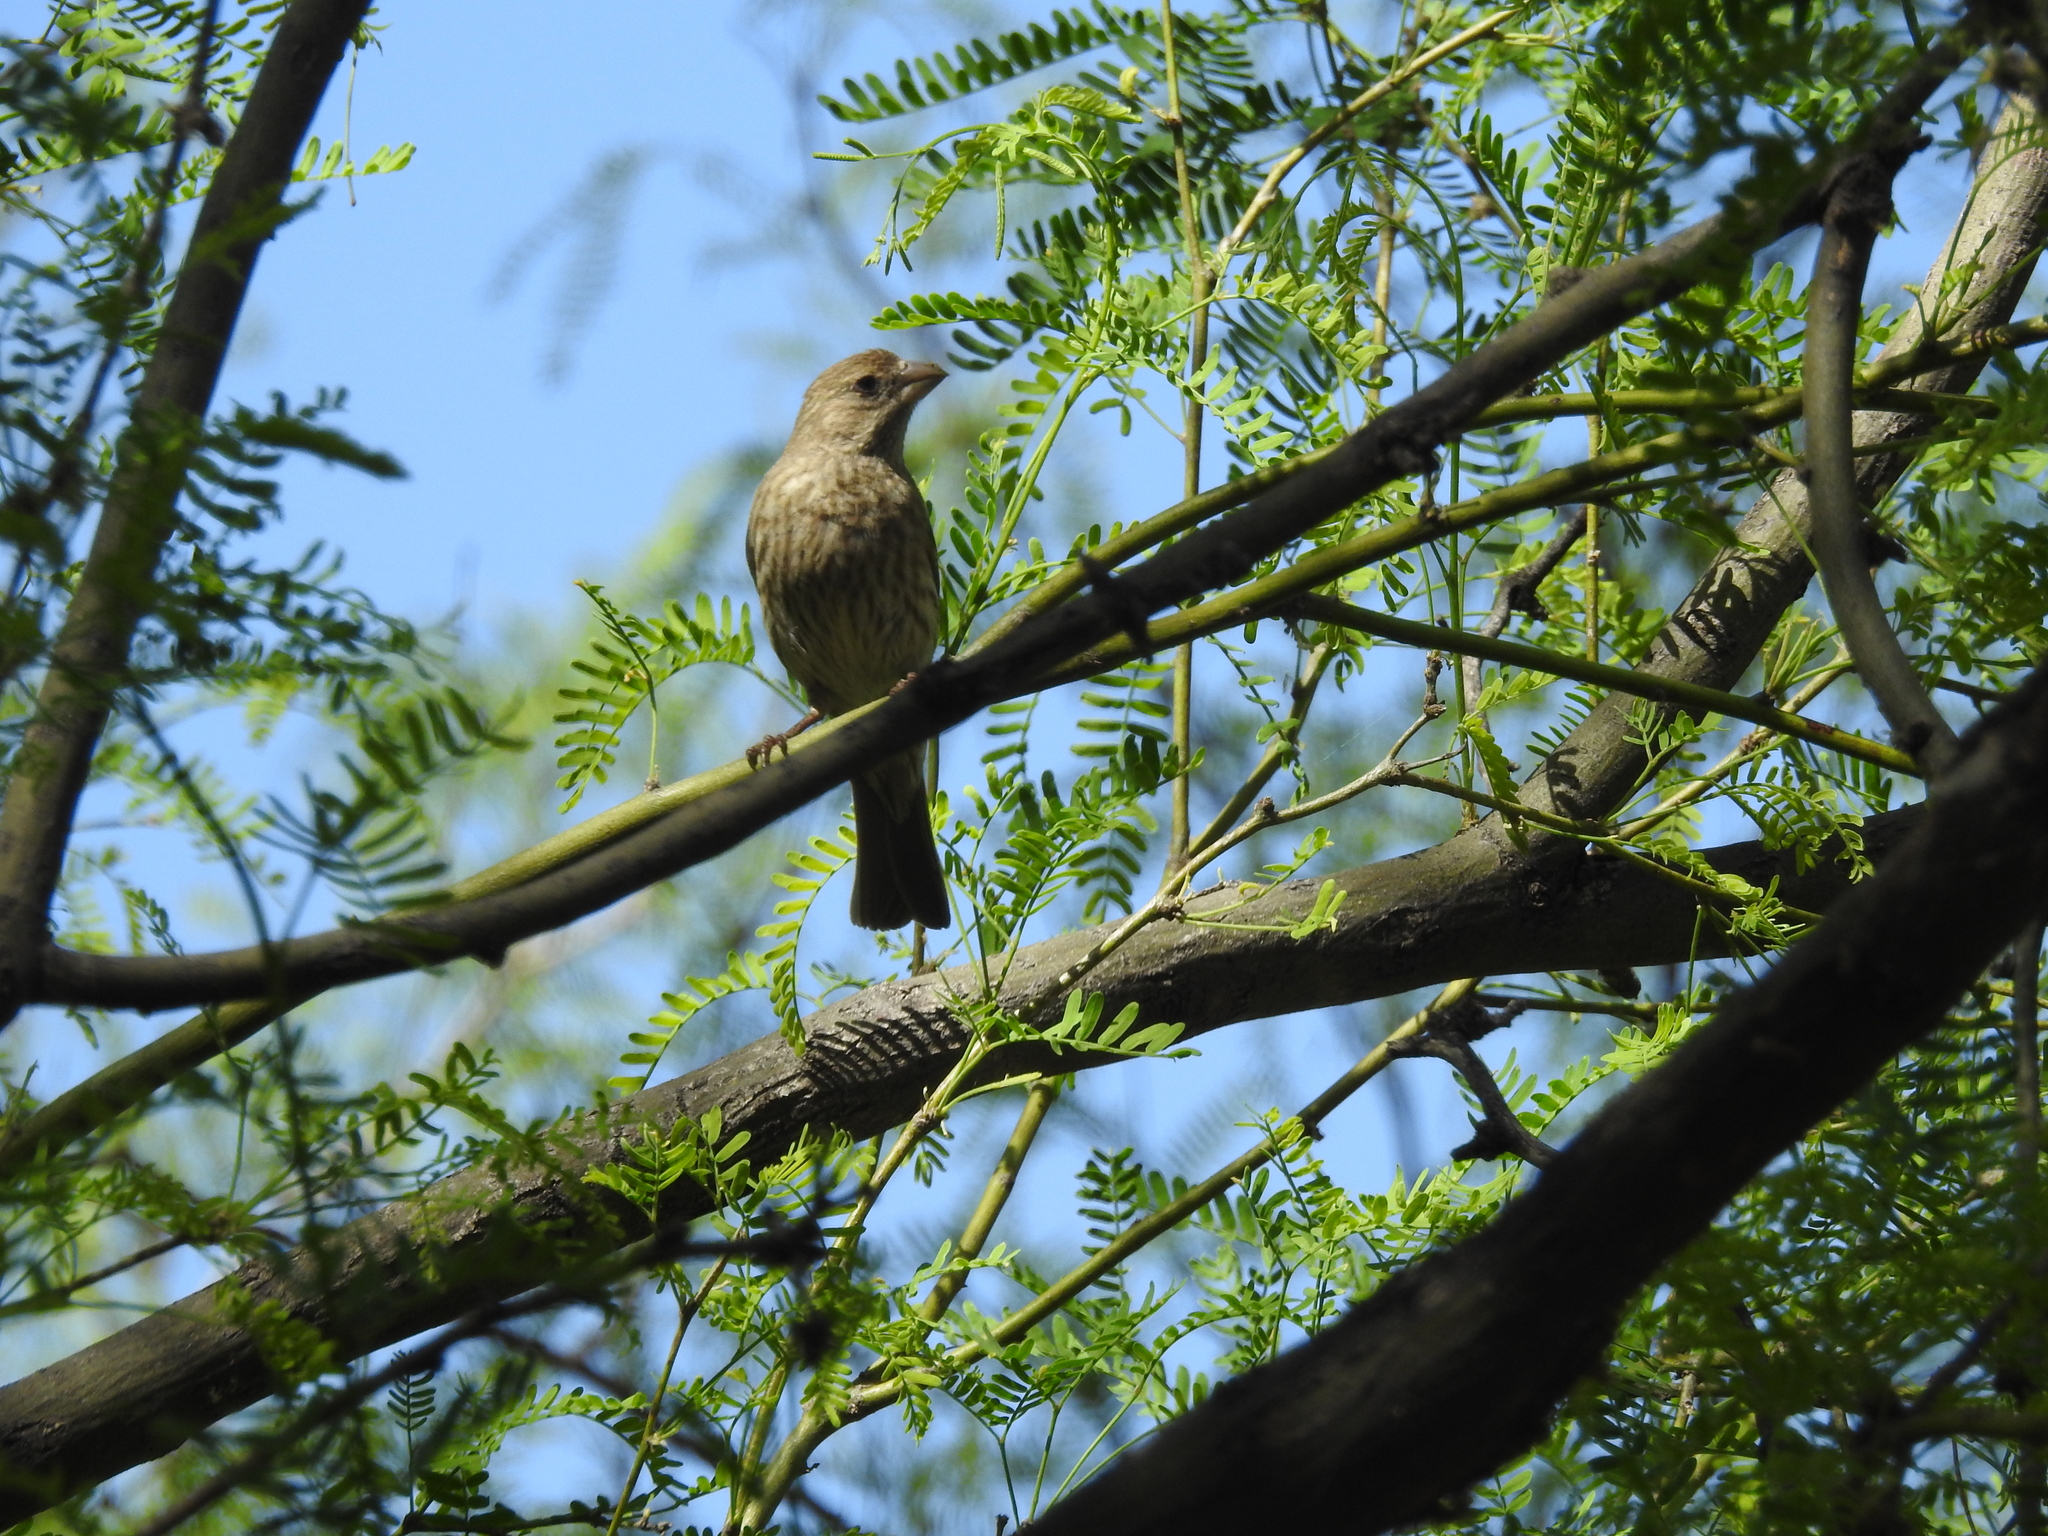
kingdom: Animalia
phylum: Chordata
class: Aves
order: Passeriformes
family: Fringillidae
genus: Haemorhous
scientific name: Haemorhous mexicanus
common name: House finch
